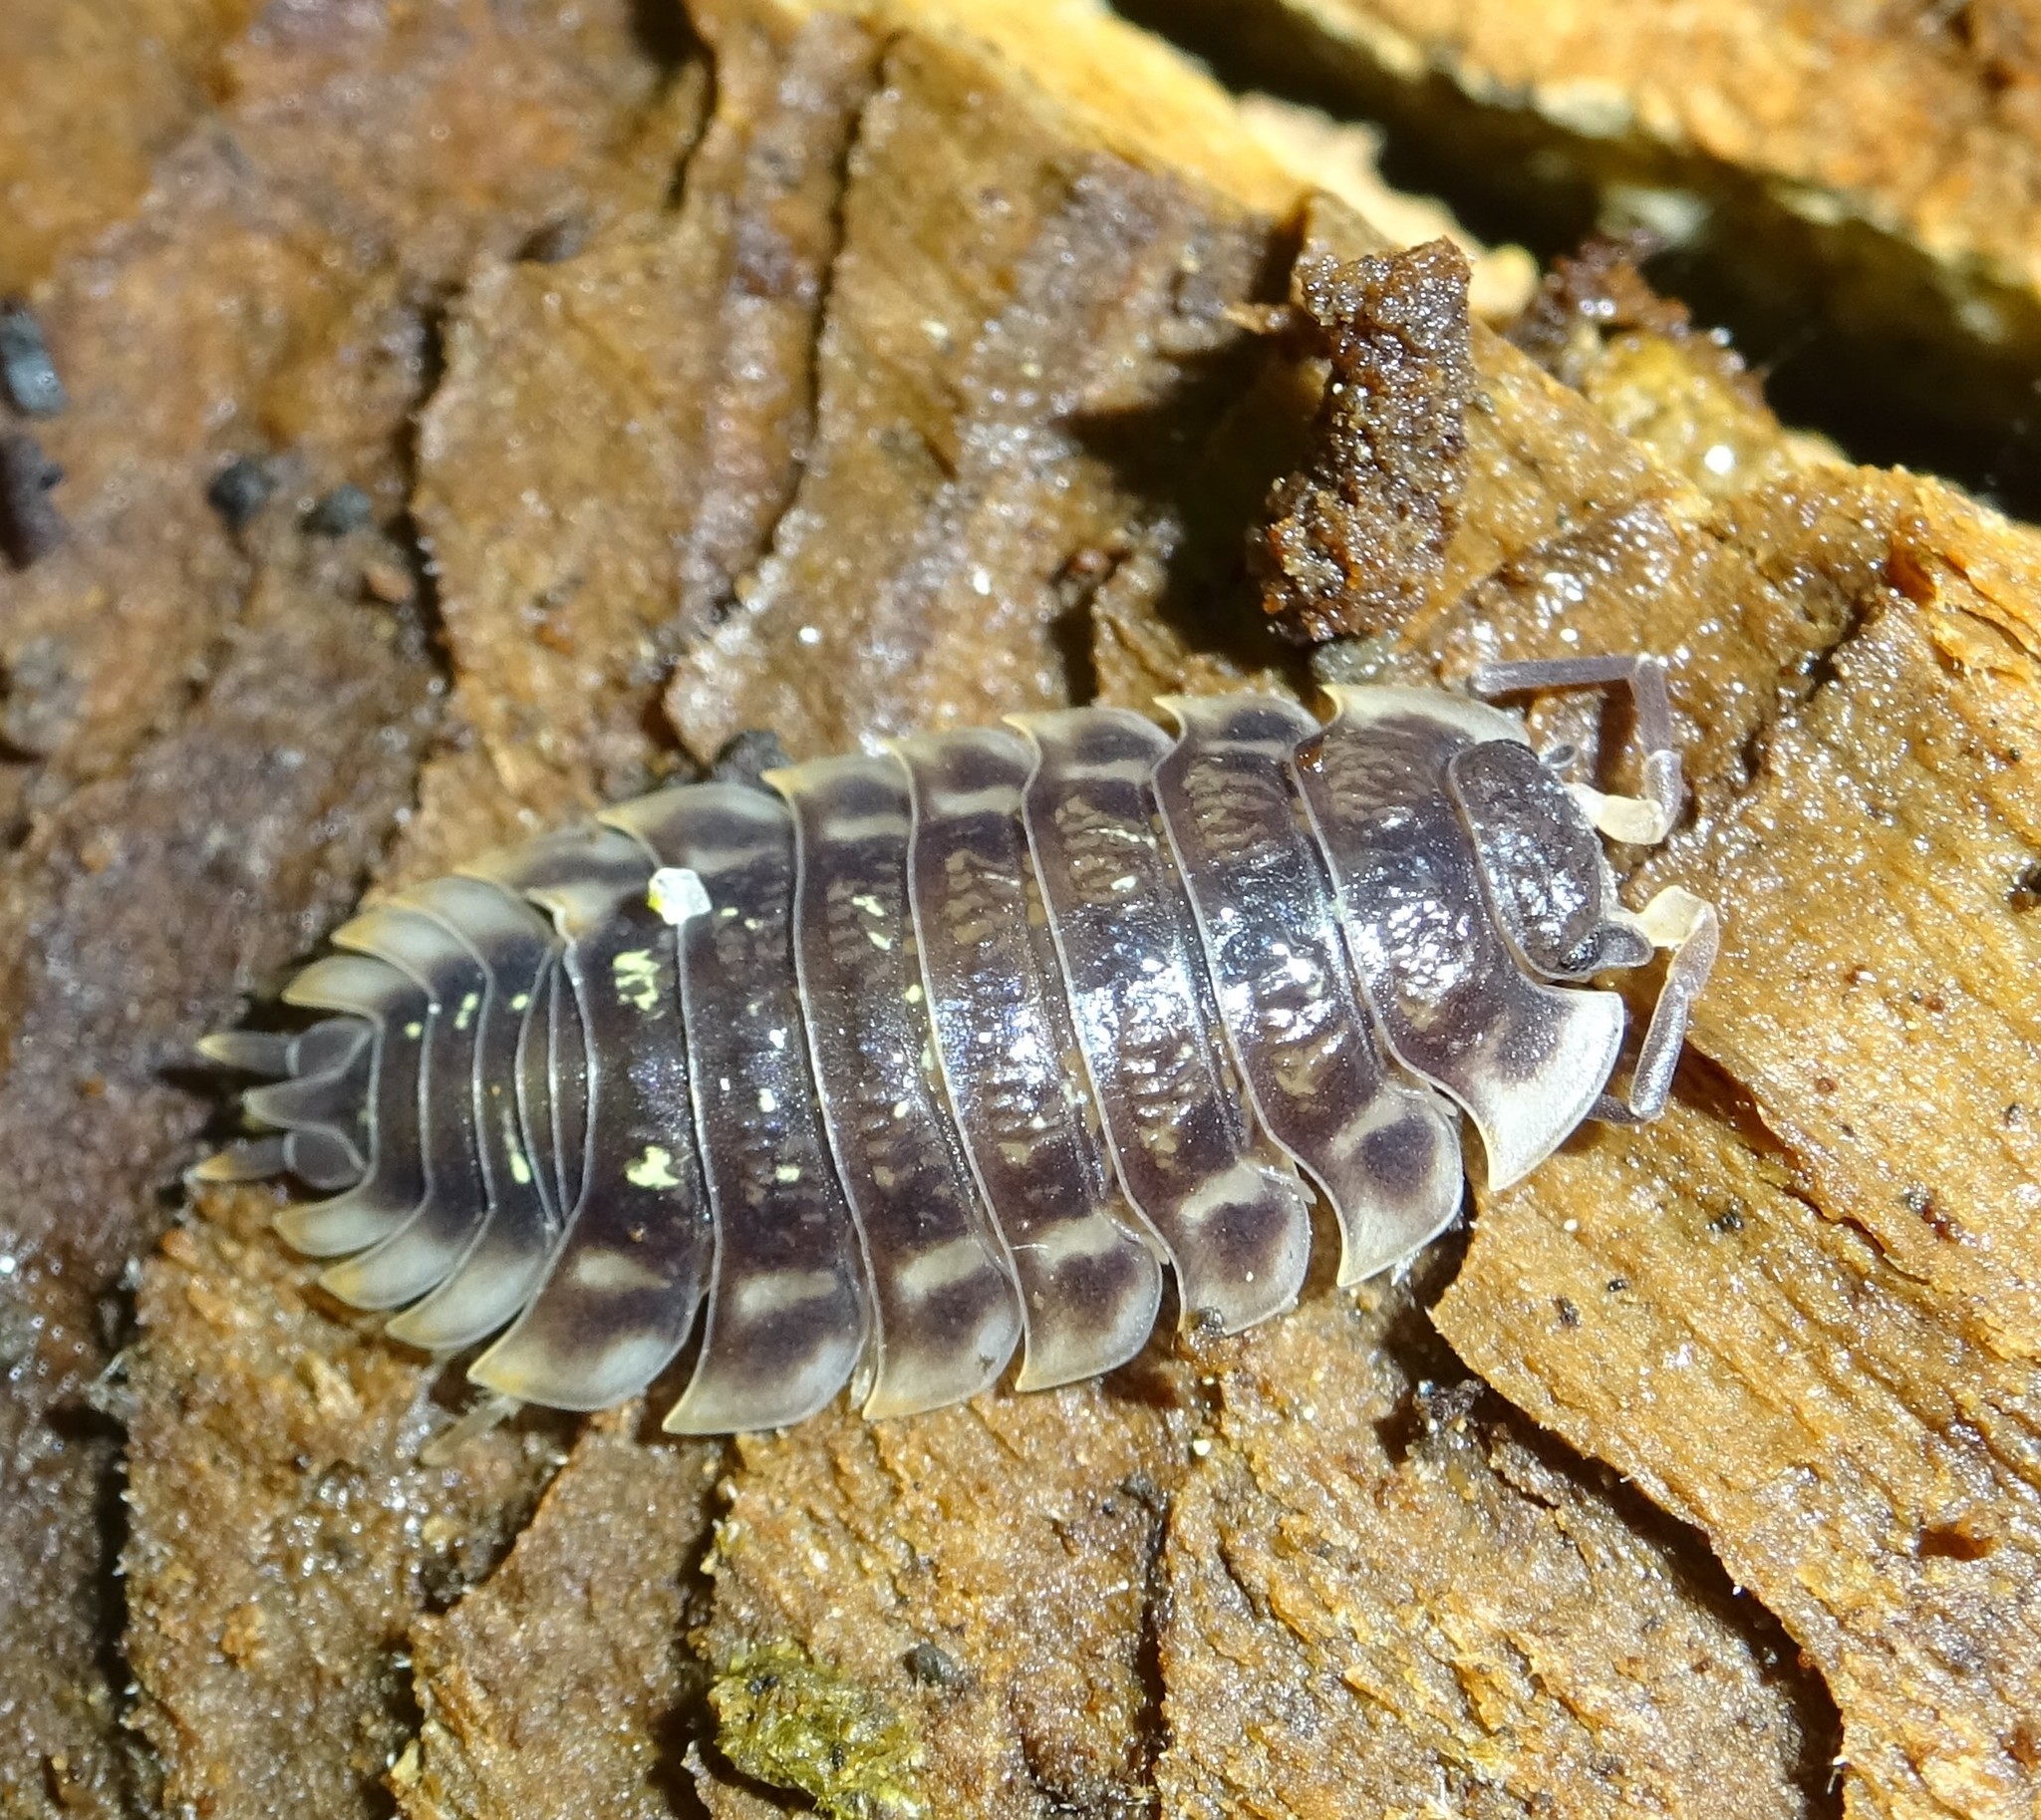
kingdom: Animalia
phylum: Arthropoda
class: Malacostraca
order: Isopoda
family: Oniscidae
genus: Oniscus
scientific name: Oniscus asellus
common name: Common shiny woodlouse
